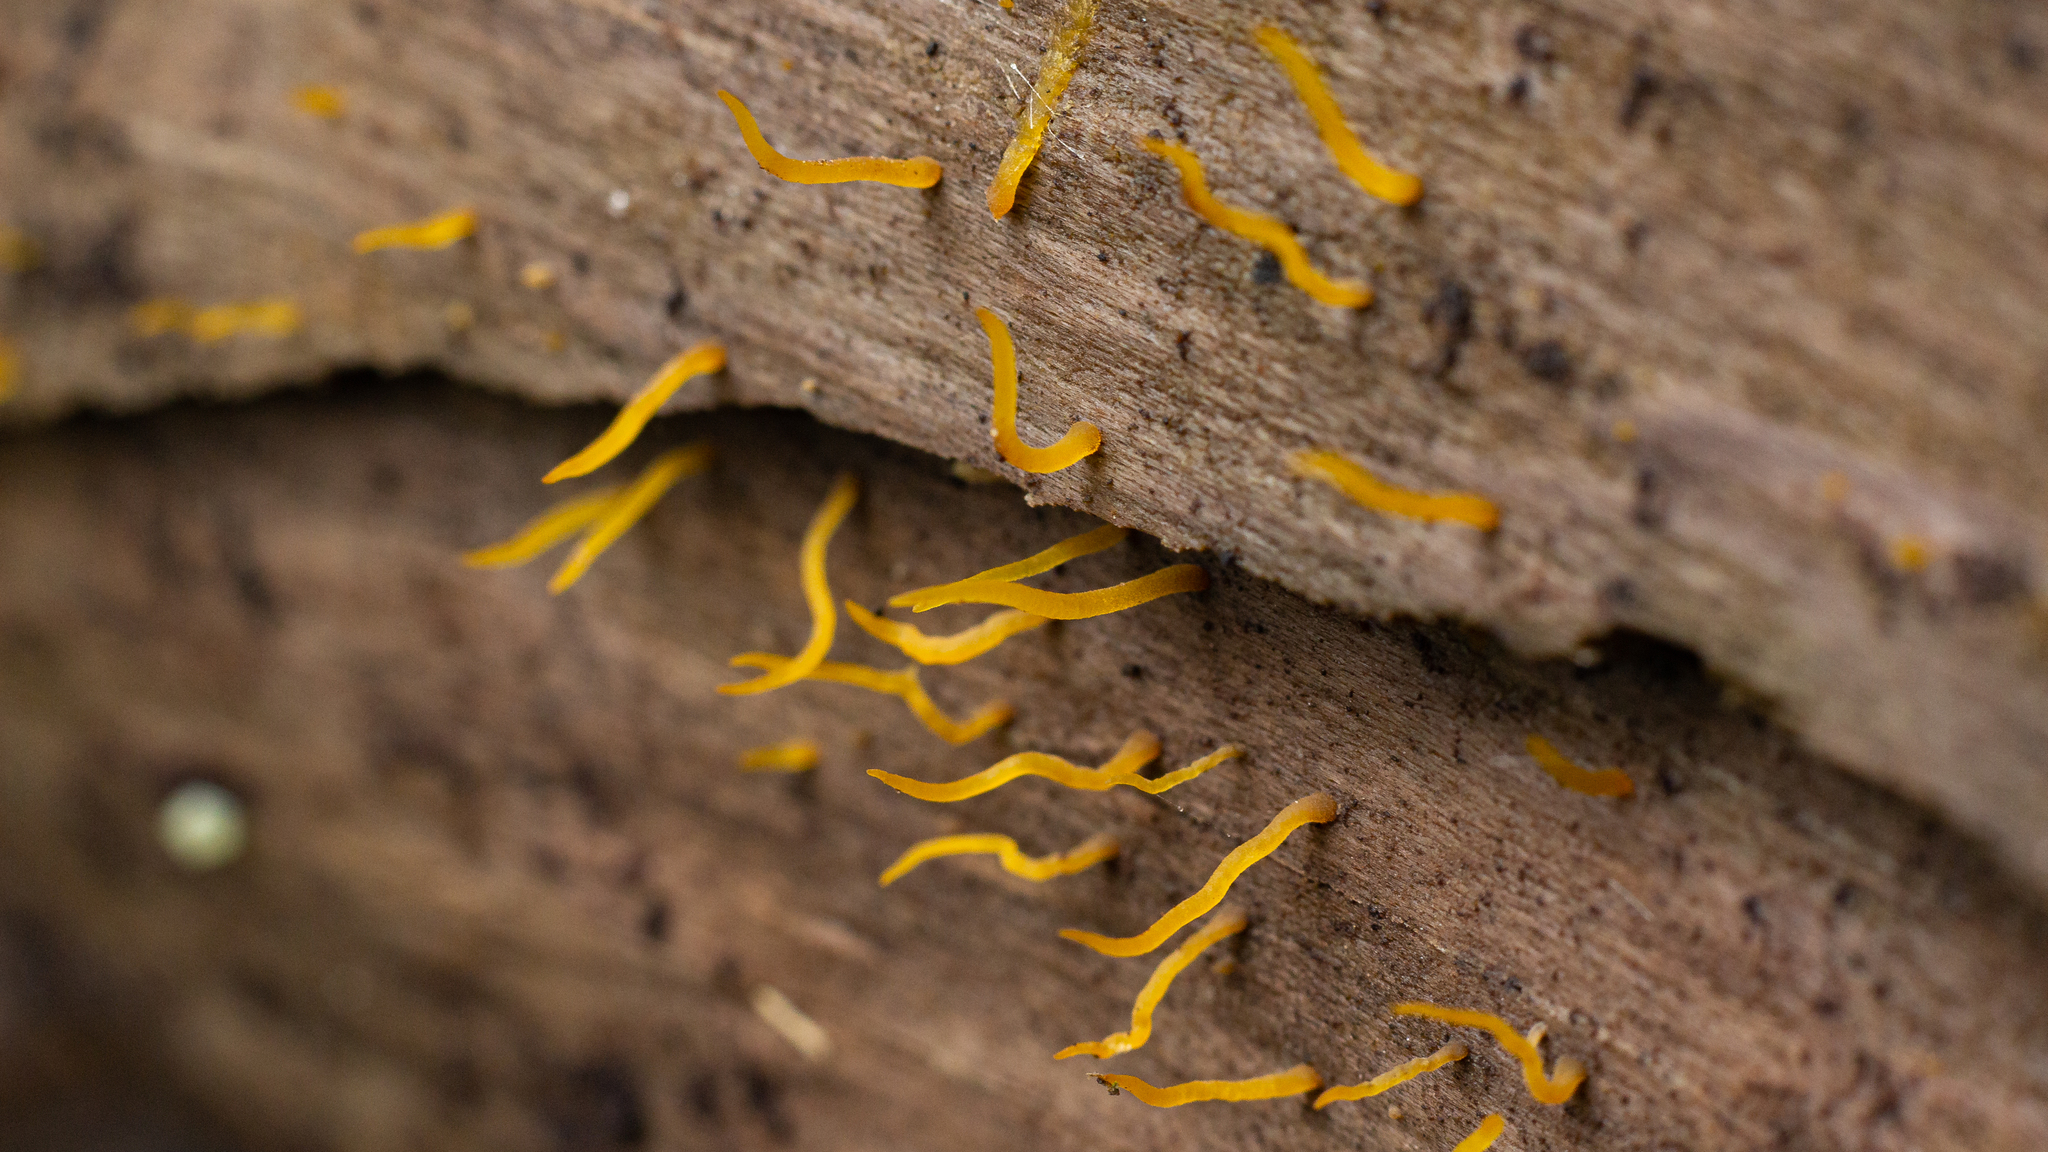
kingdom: Fungi
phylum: Basidiomycota
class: Dacrymycetes
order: Dacrymycetales
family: Dacrymycetaceae
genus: Calocera
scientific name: Calocera cornea
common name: Small stagshorn
